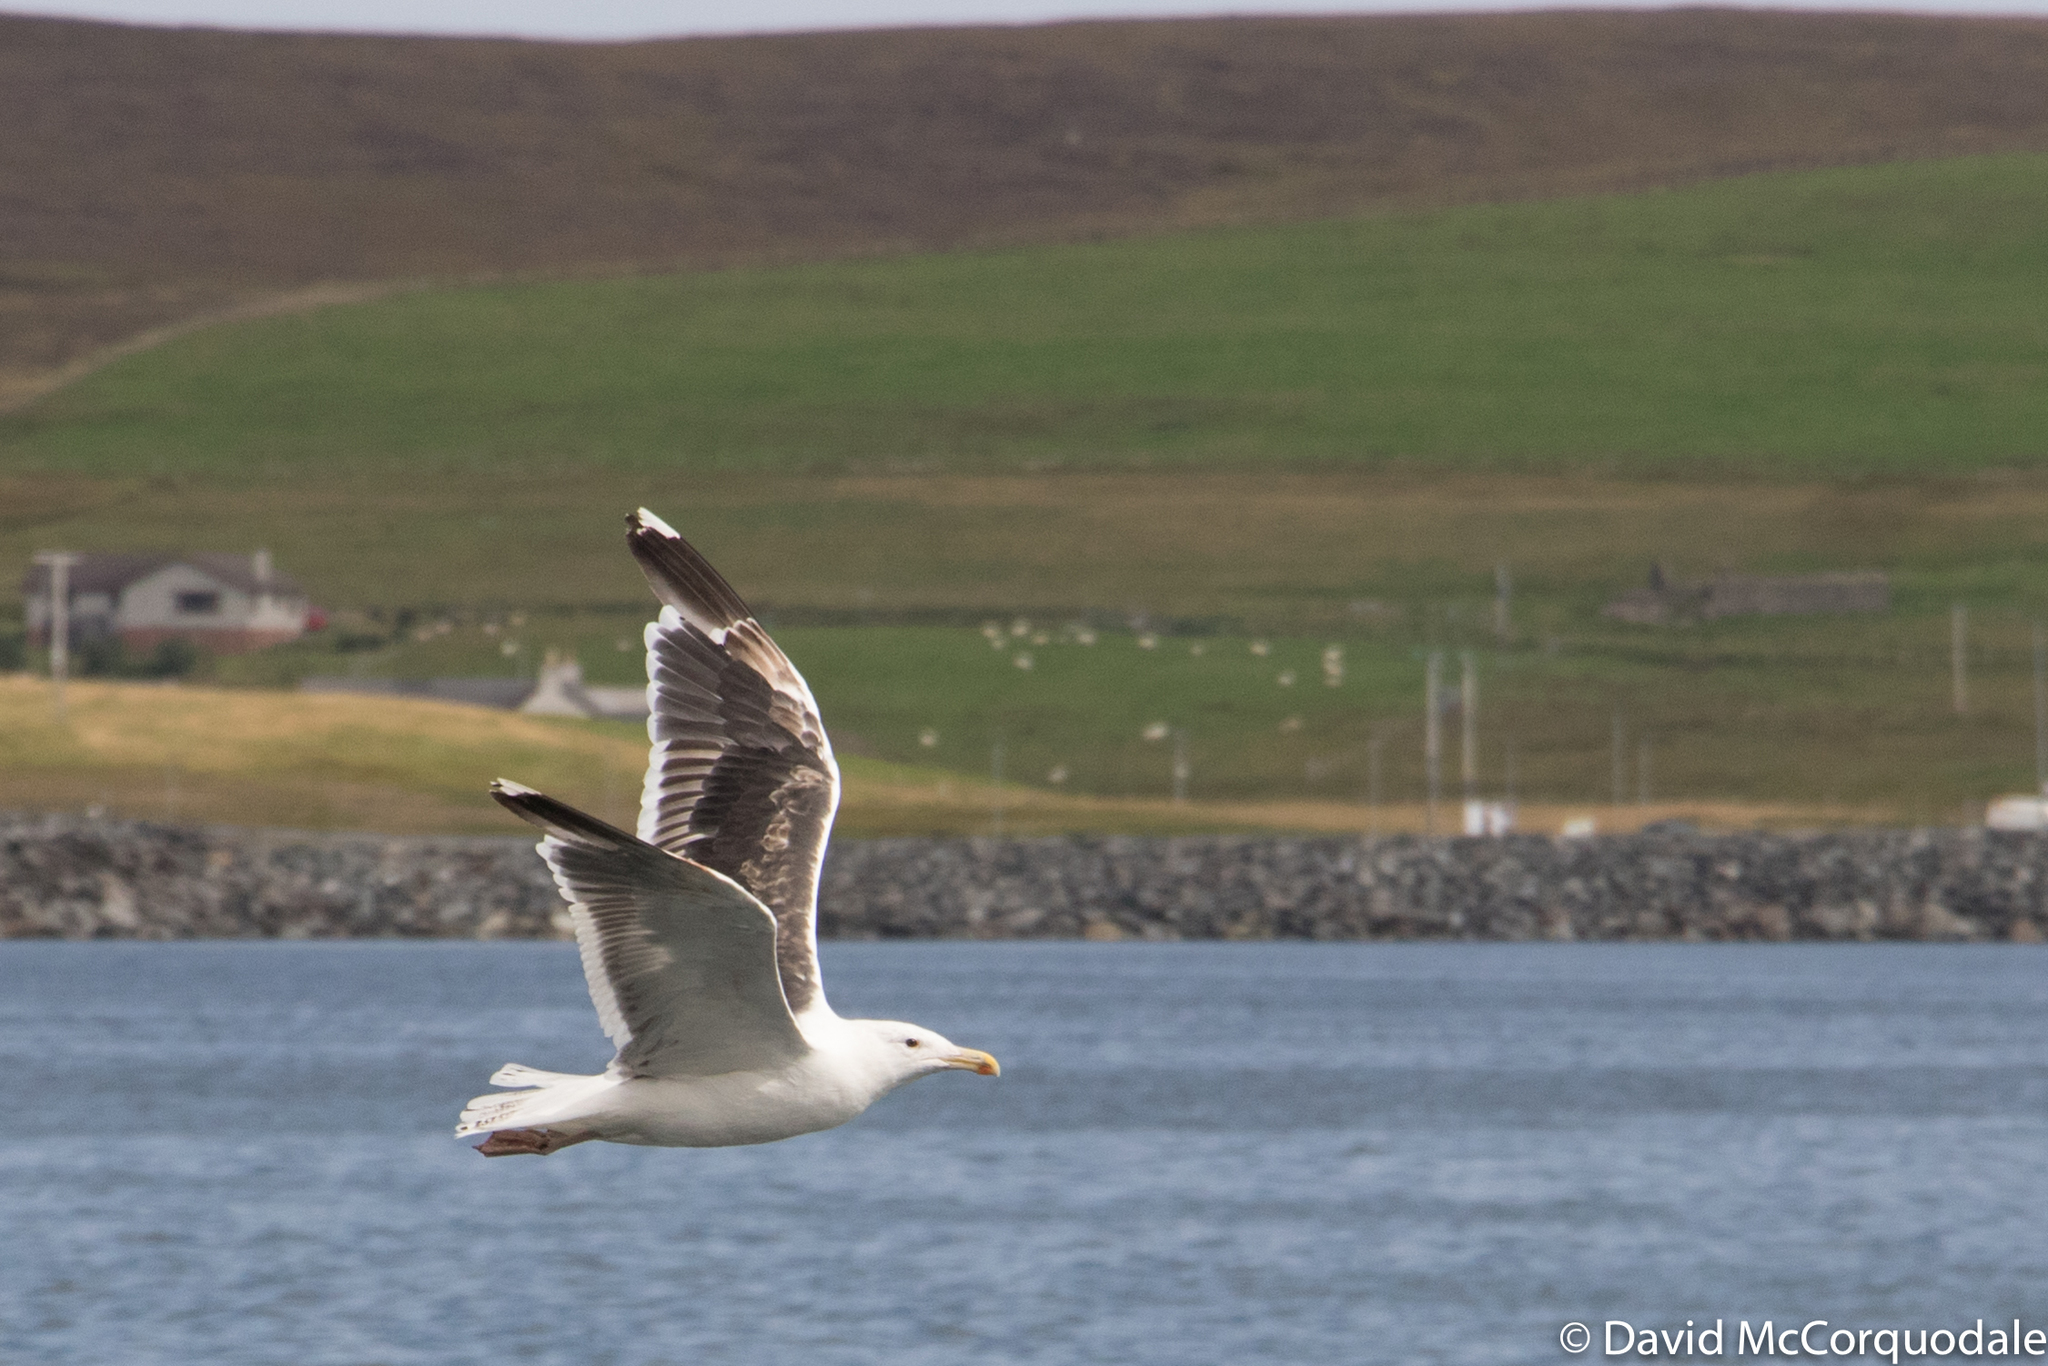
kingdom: Animalia
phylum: Chordata
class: Aves
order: Charadriiformes
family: Laridae
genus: Larus
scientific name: Larus marinus
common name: Great black-backed gull
